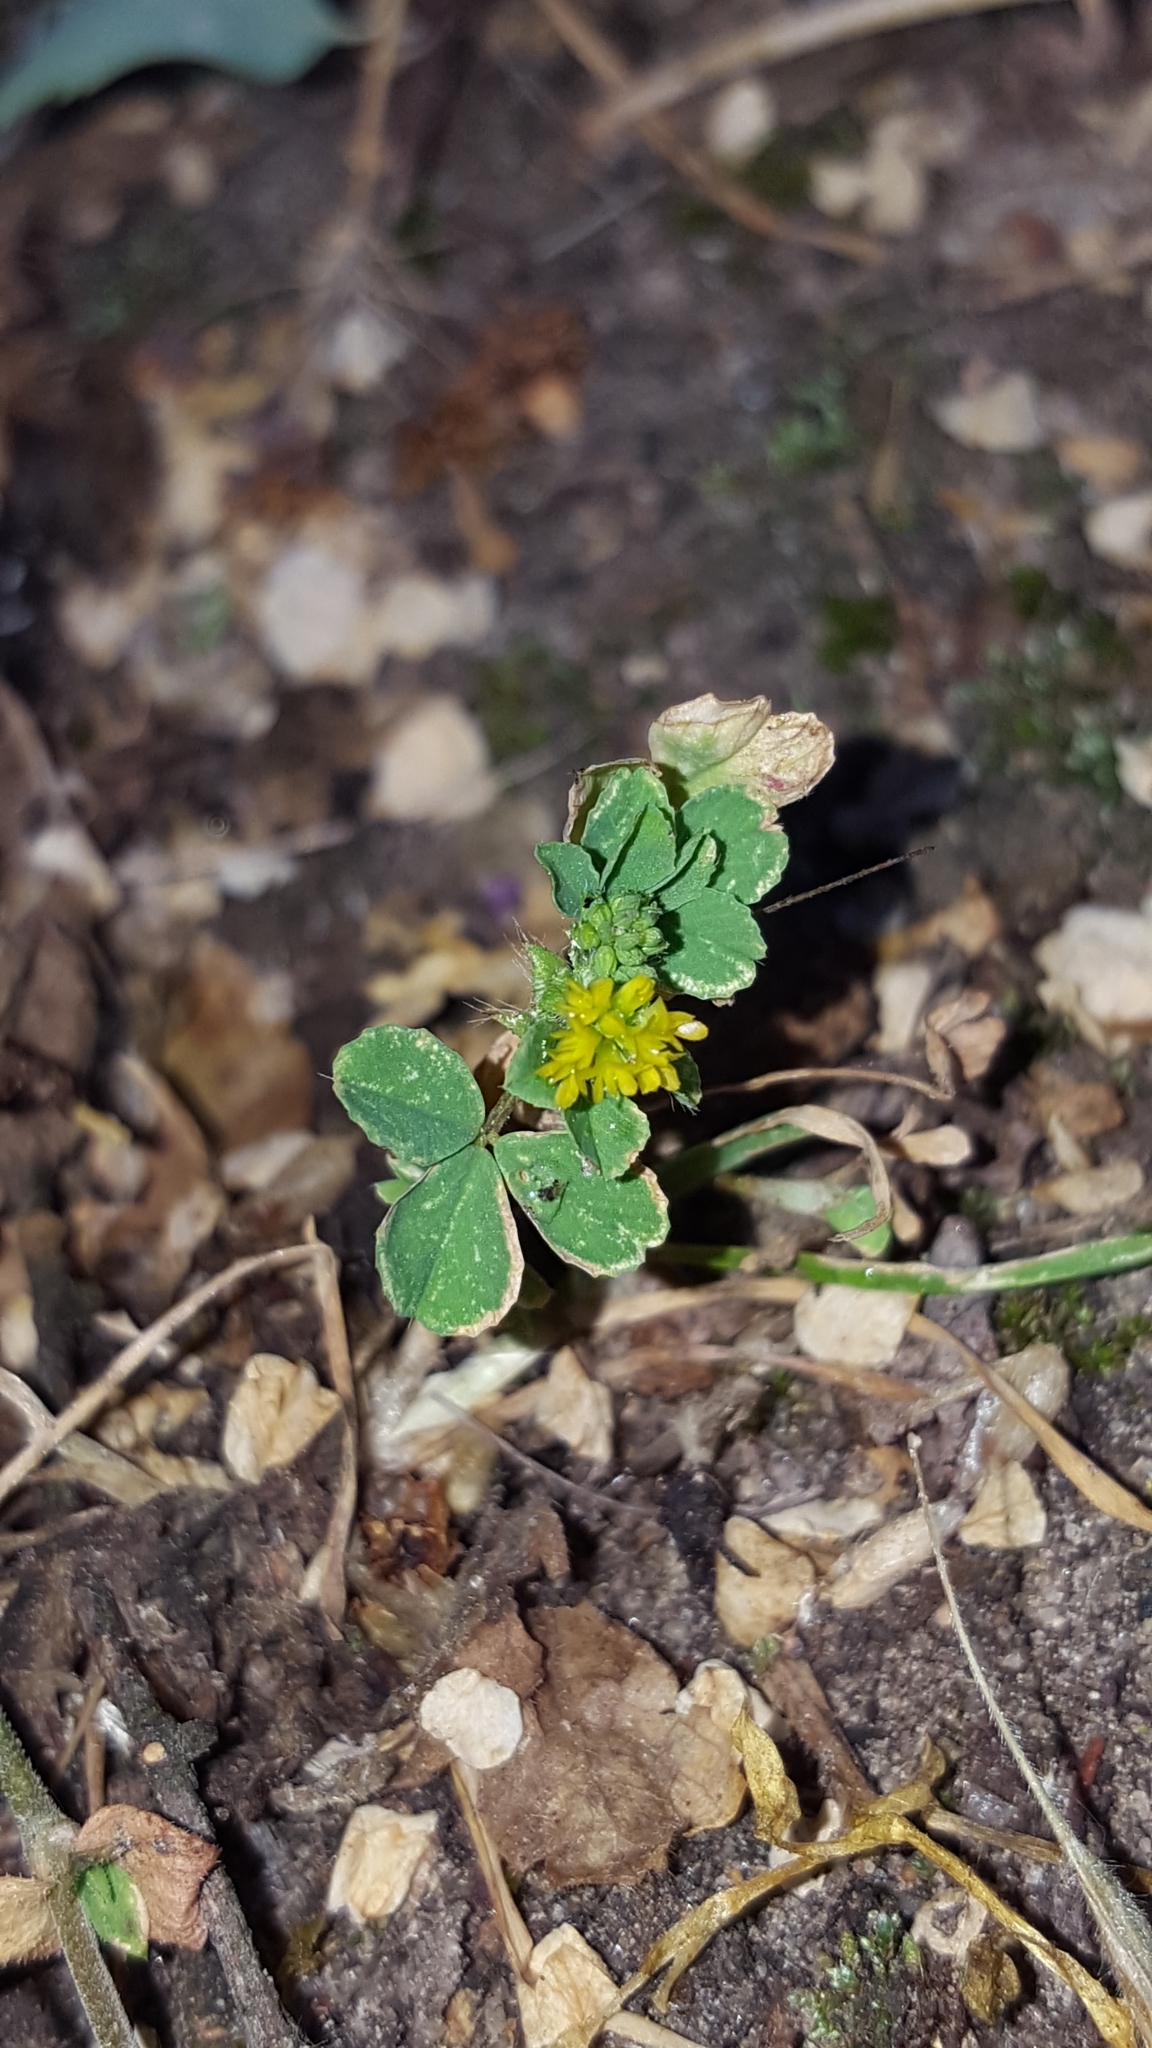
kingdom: Plantae
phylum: Tracheophyta
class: Magnoliopsida
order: Fabales
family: Fabaceae
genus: Trifolium
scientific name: Trifolium dubium
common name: Suckling clover
